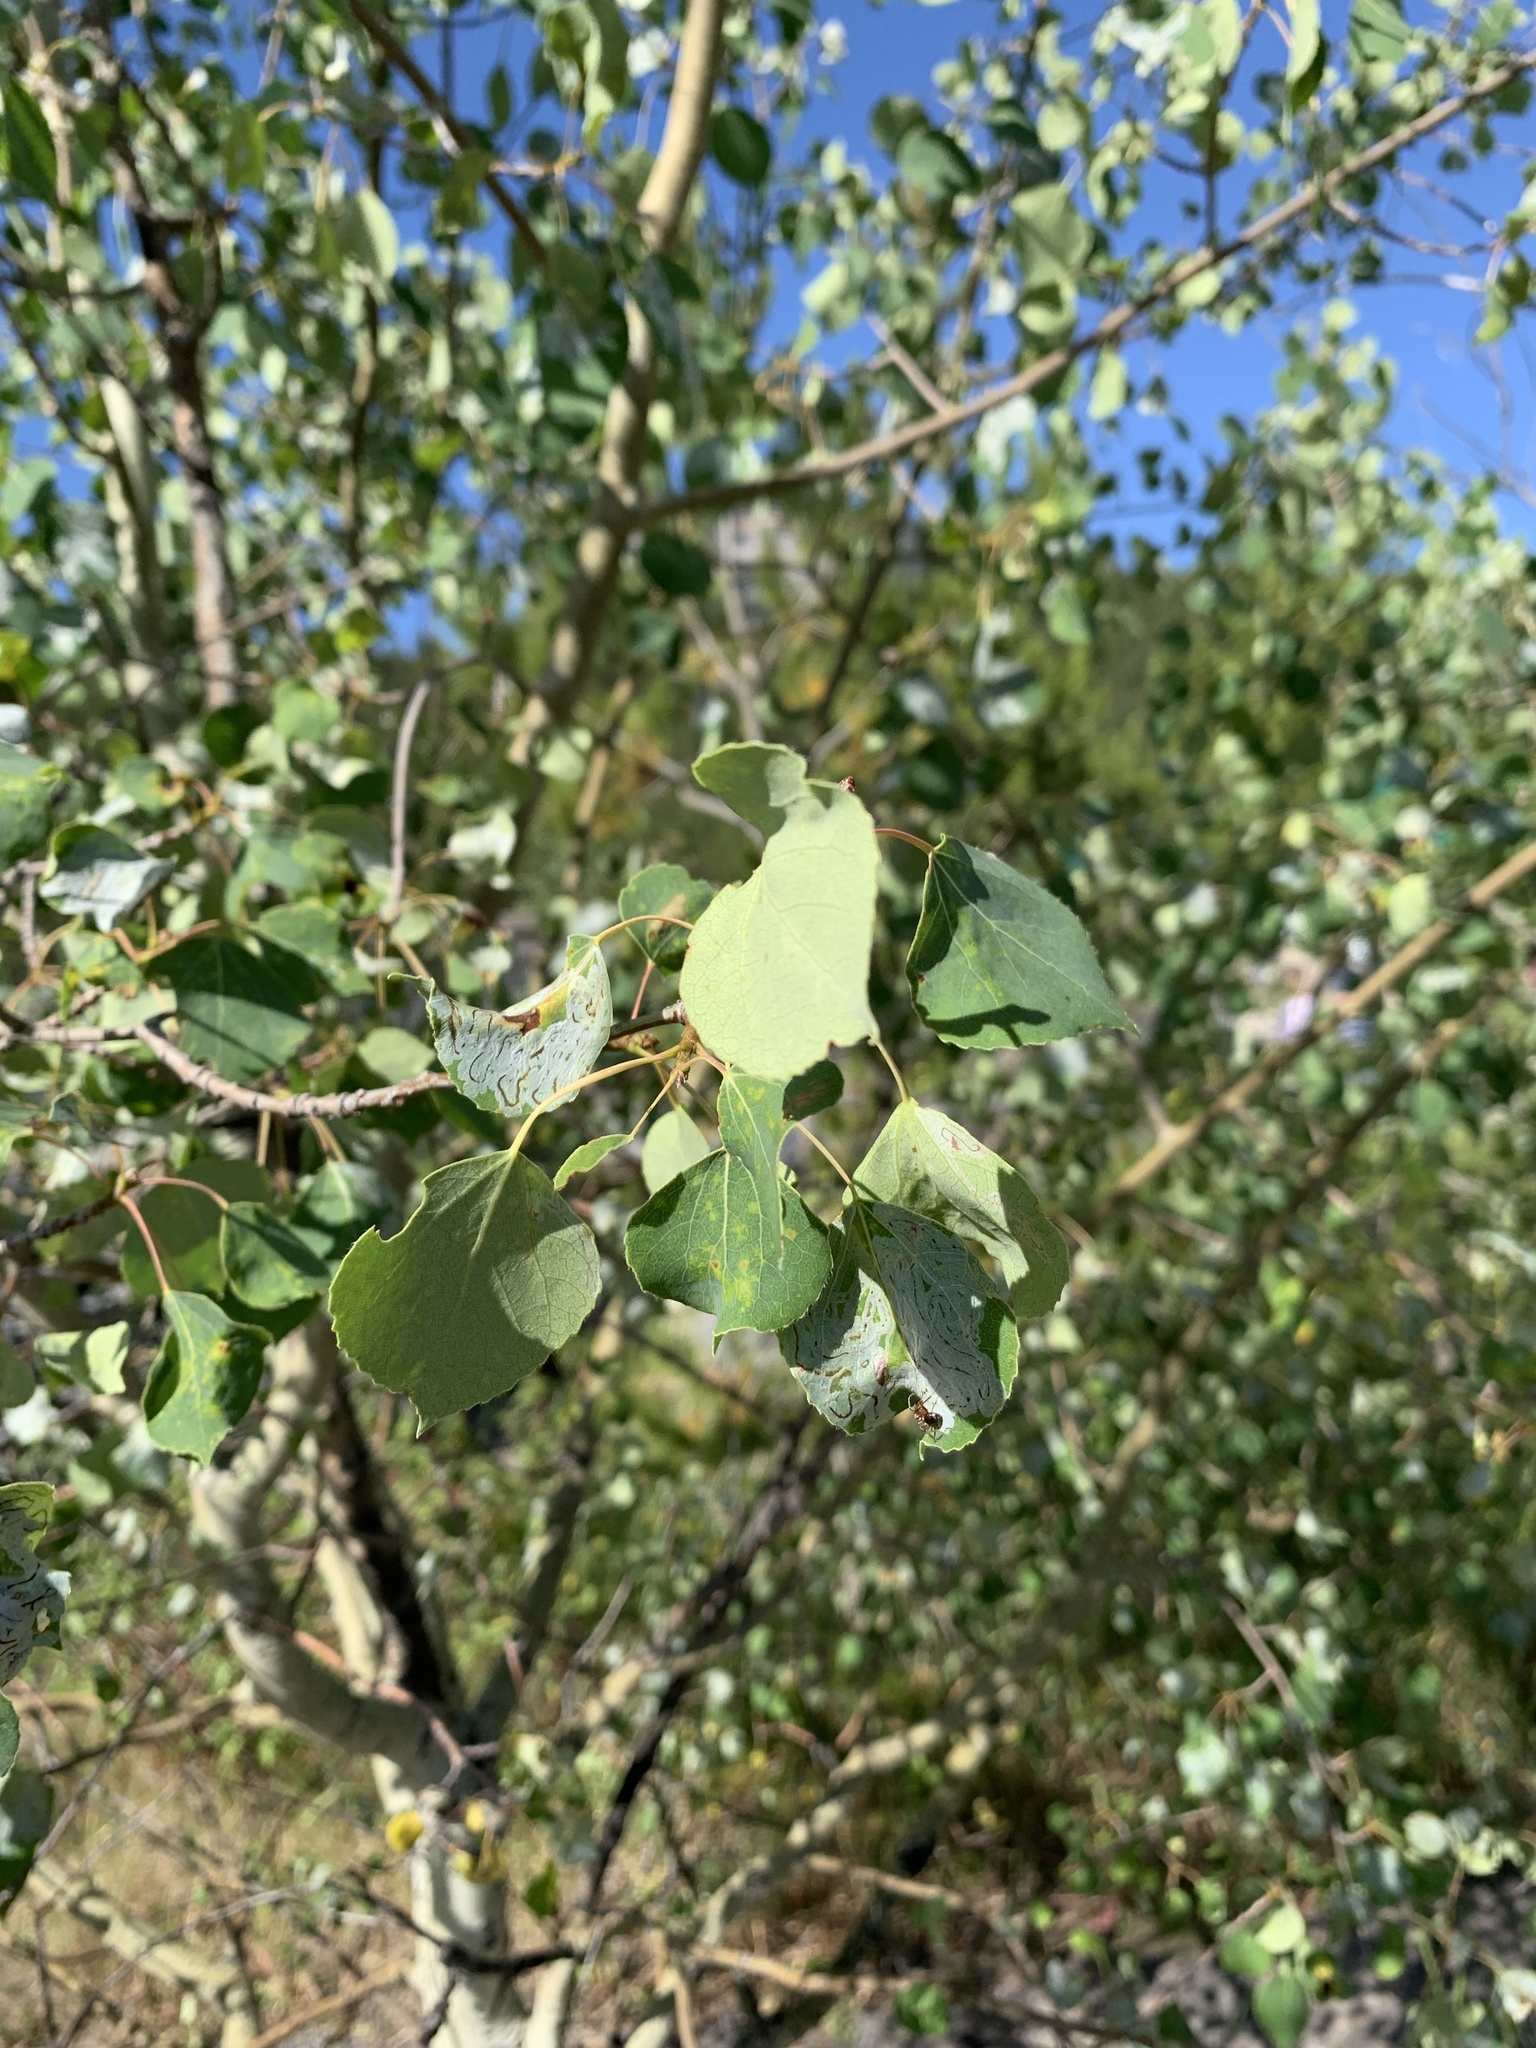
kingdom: Plantae
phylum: Tracheophyta
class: Magnoliopsida
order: Malpighiales
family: Salicaceae
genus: Populus
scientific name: Populus tremuloides
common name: Quaking aspen
